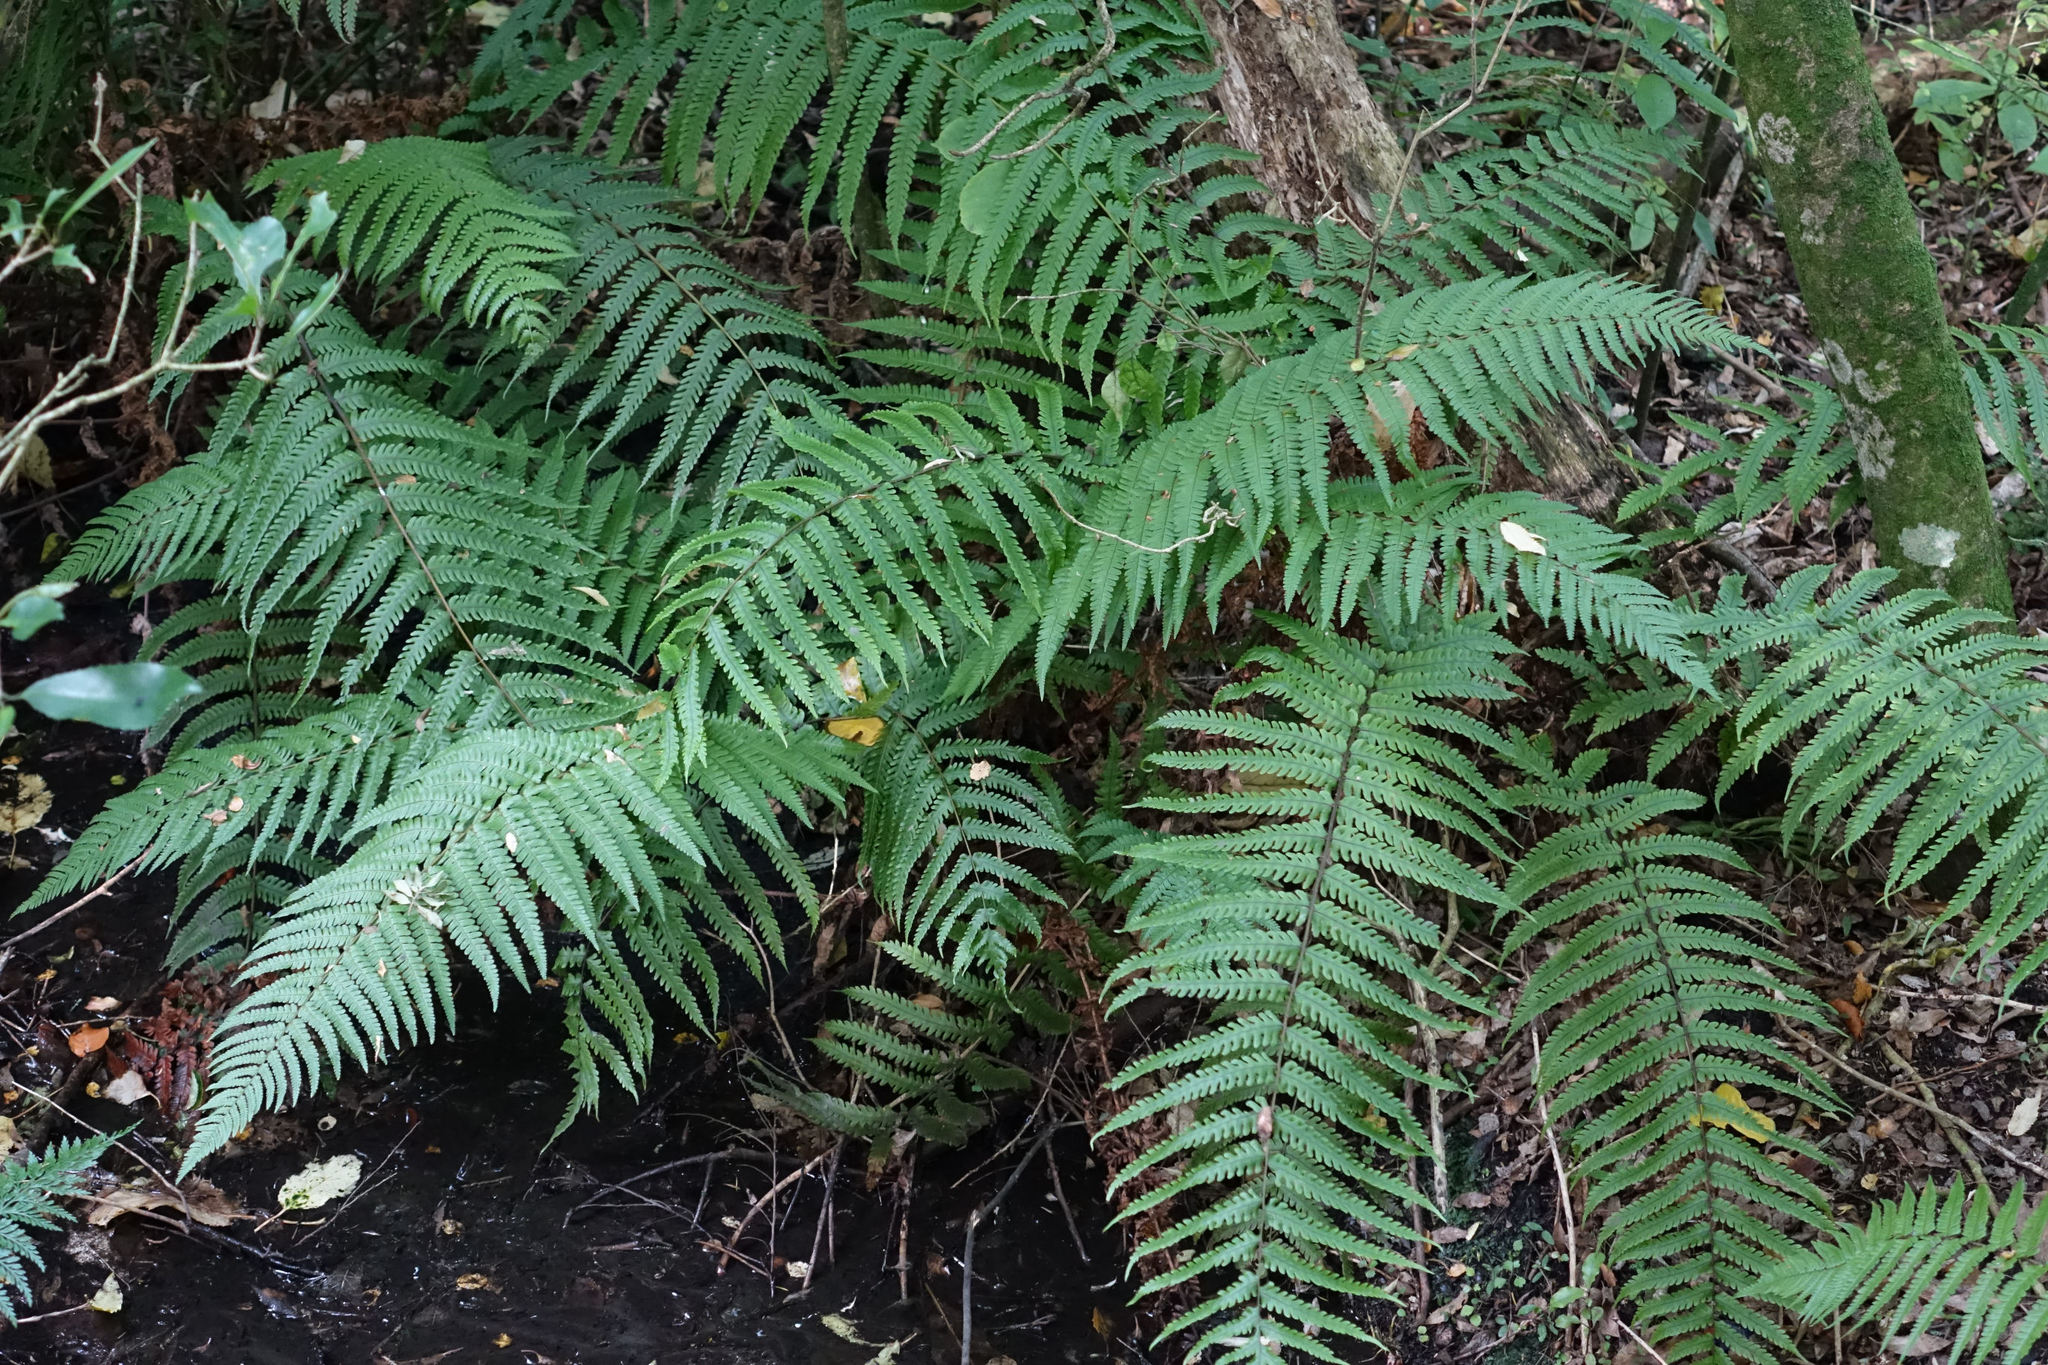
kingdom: Plantae
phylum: Tracheophyta
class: Polypodiopsida
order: Polypodiales
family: Thelypteridaceae
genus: Pakau
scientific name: Pakau pennigera
